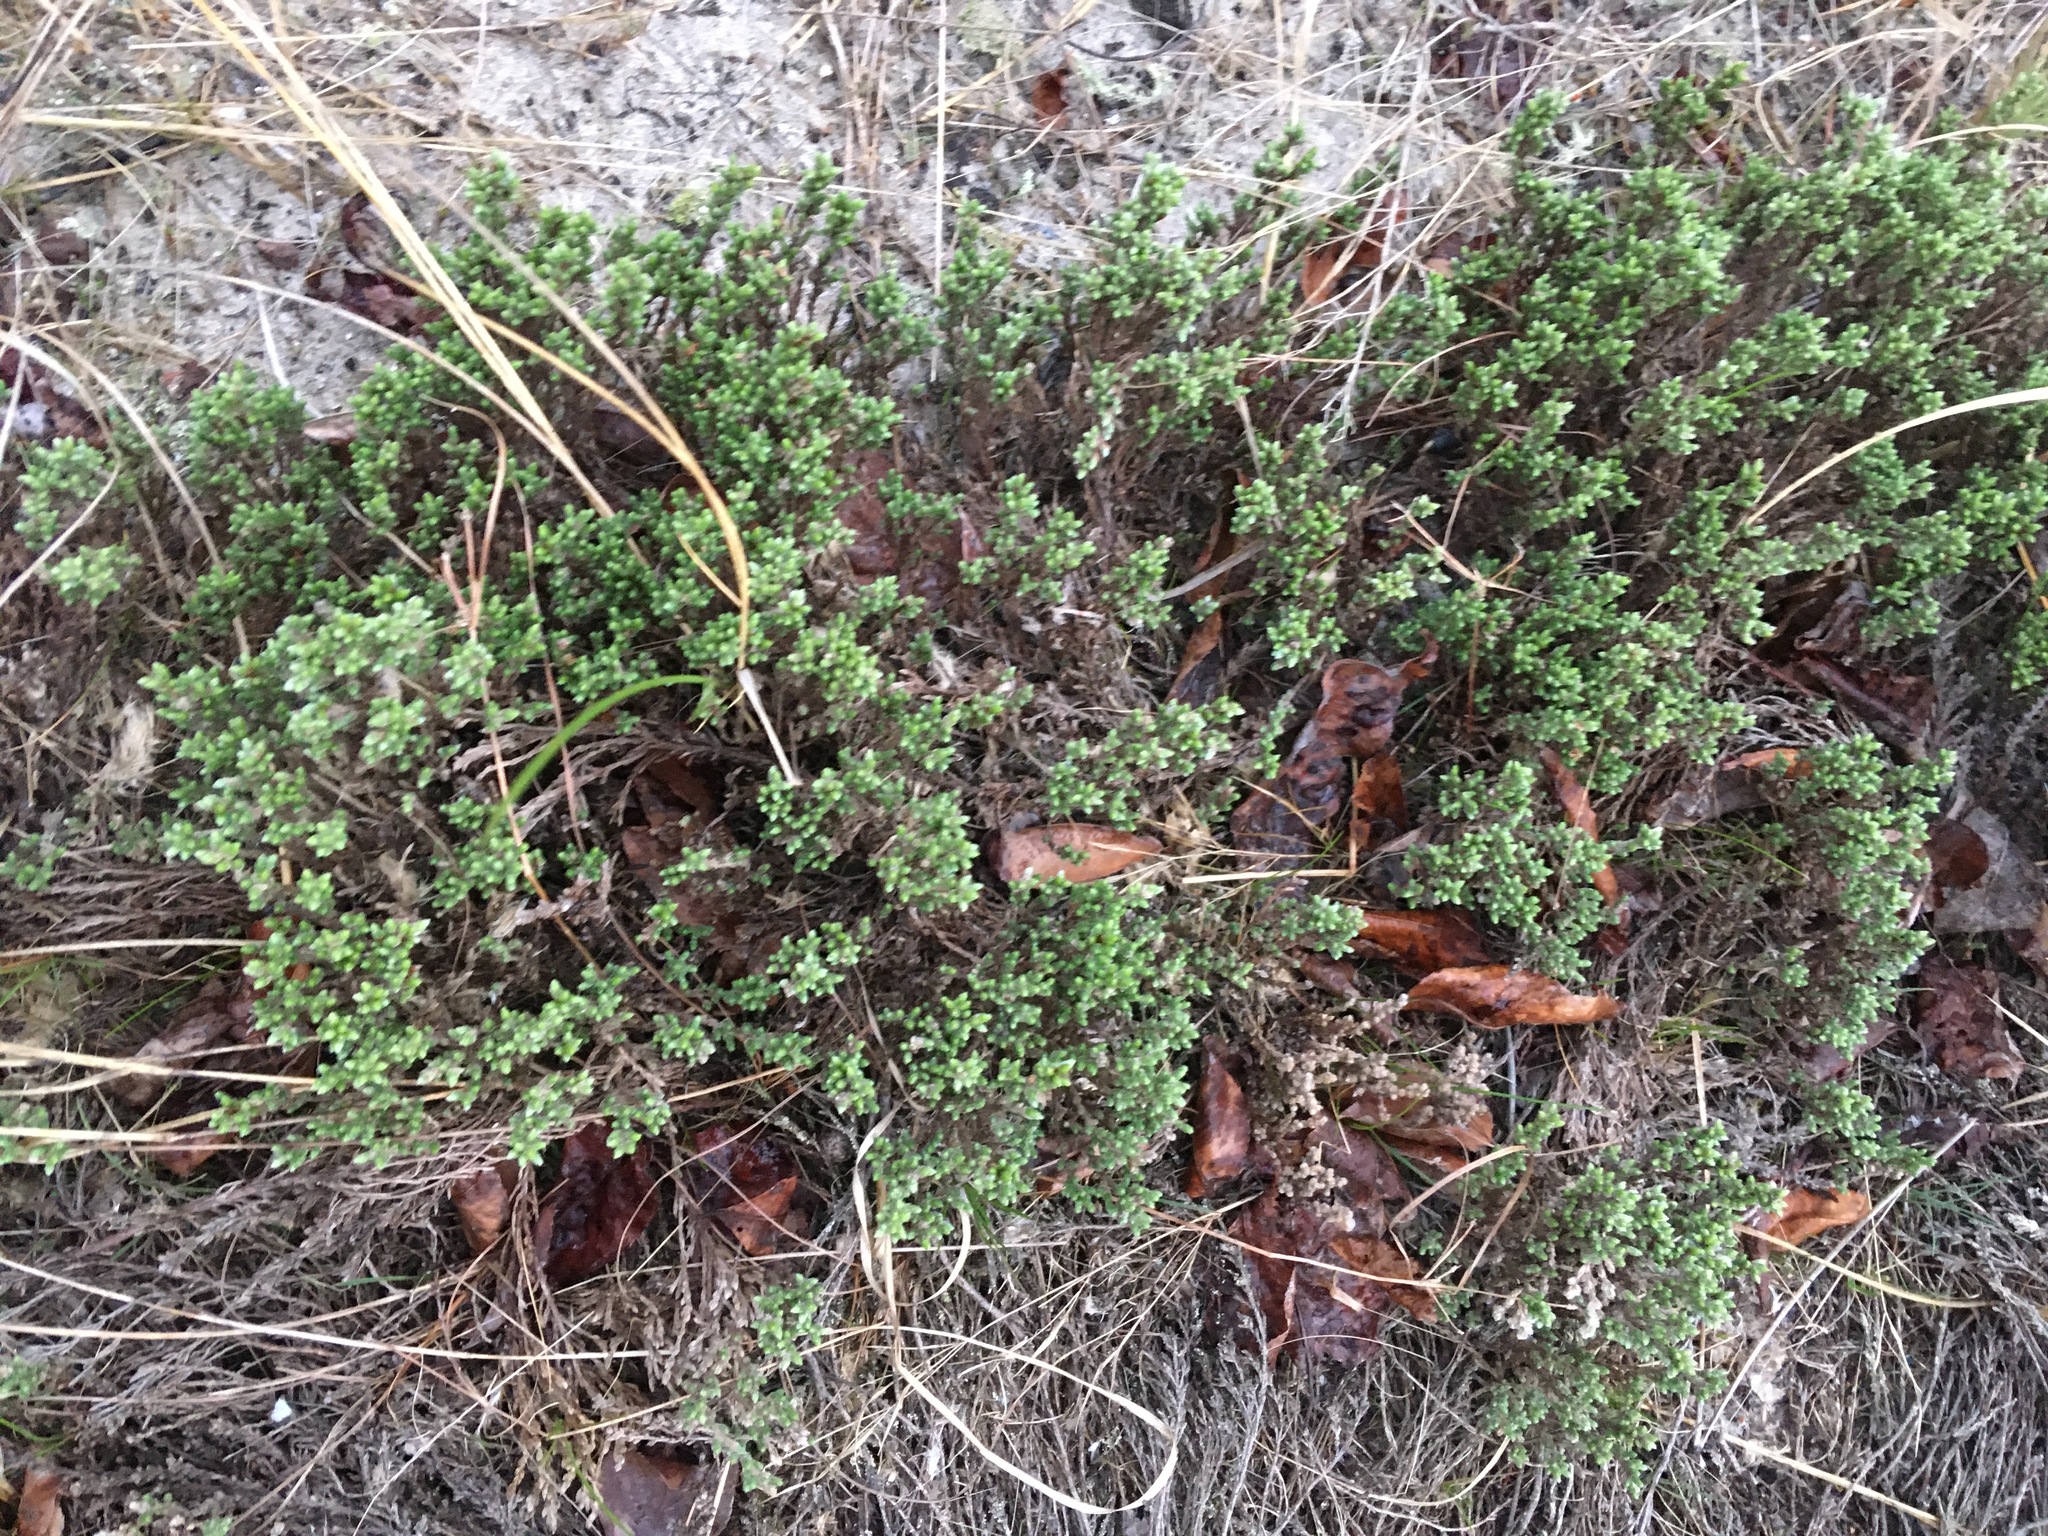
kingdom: Plantae
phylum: Tracheophyta
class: Magnoliopsida
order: Malvales
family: Cistaceae
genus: Hudsonia
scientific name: Hudsonia tomentosa
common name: Beach-heath
